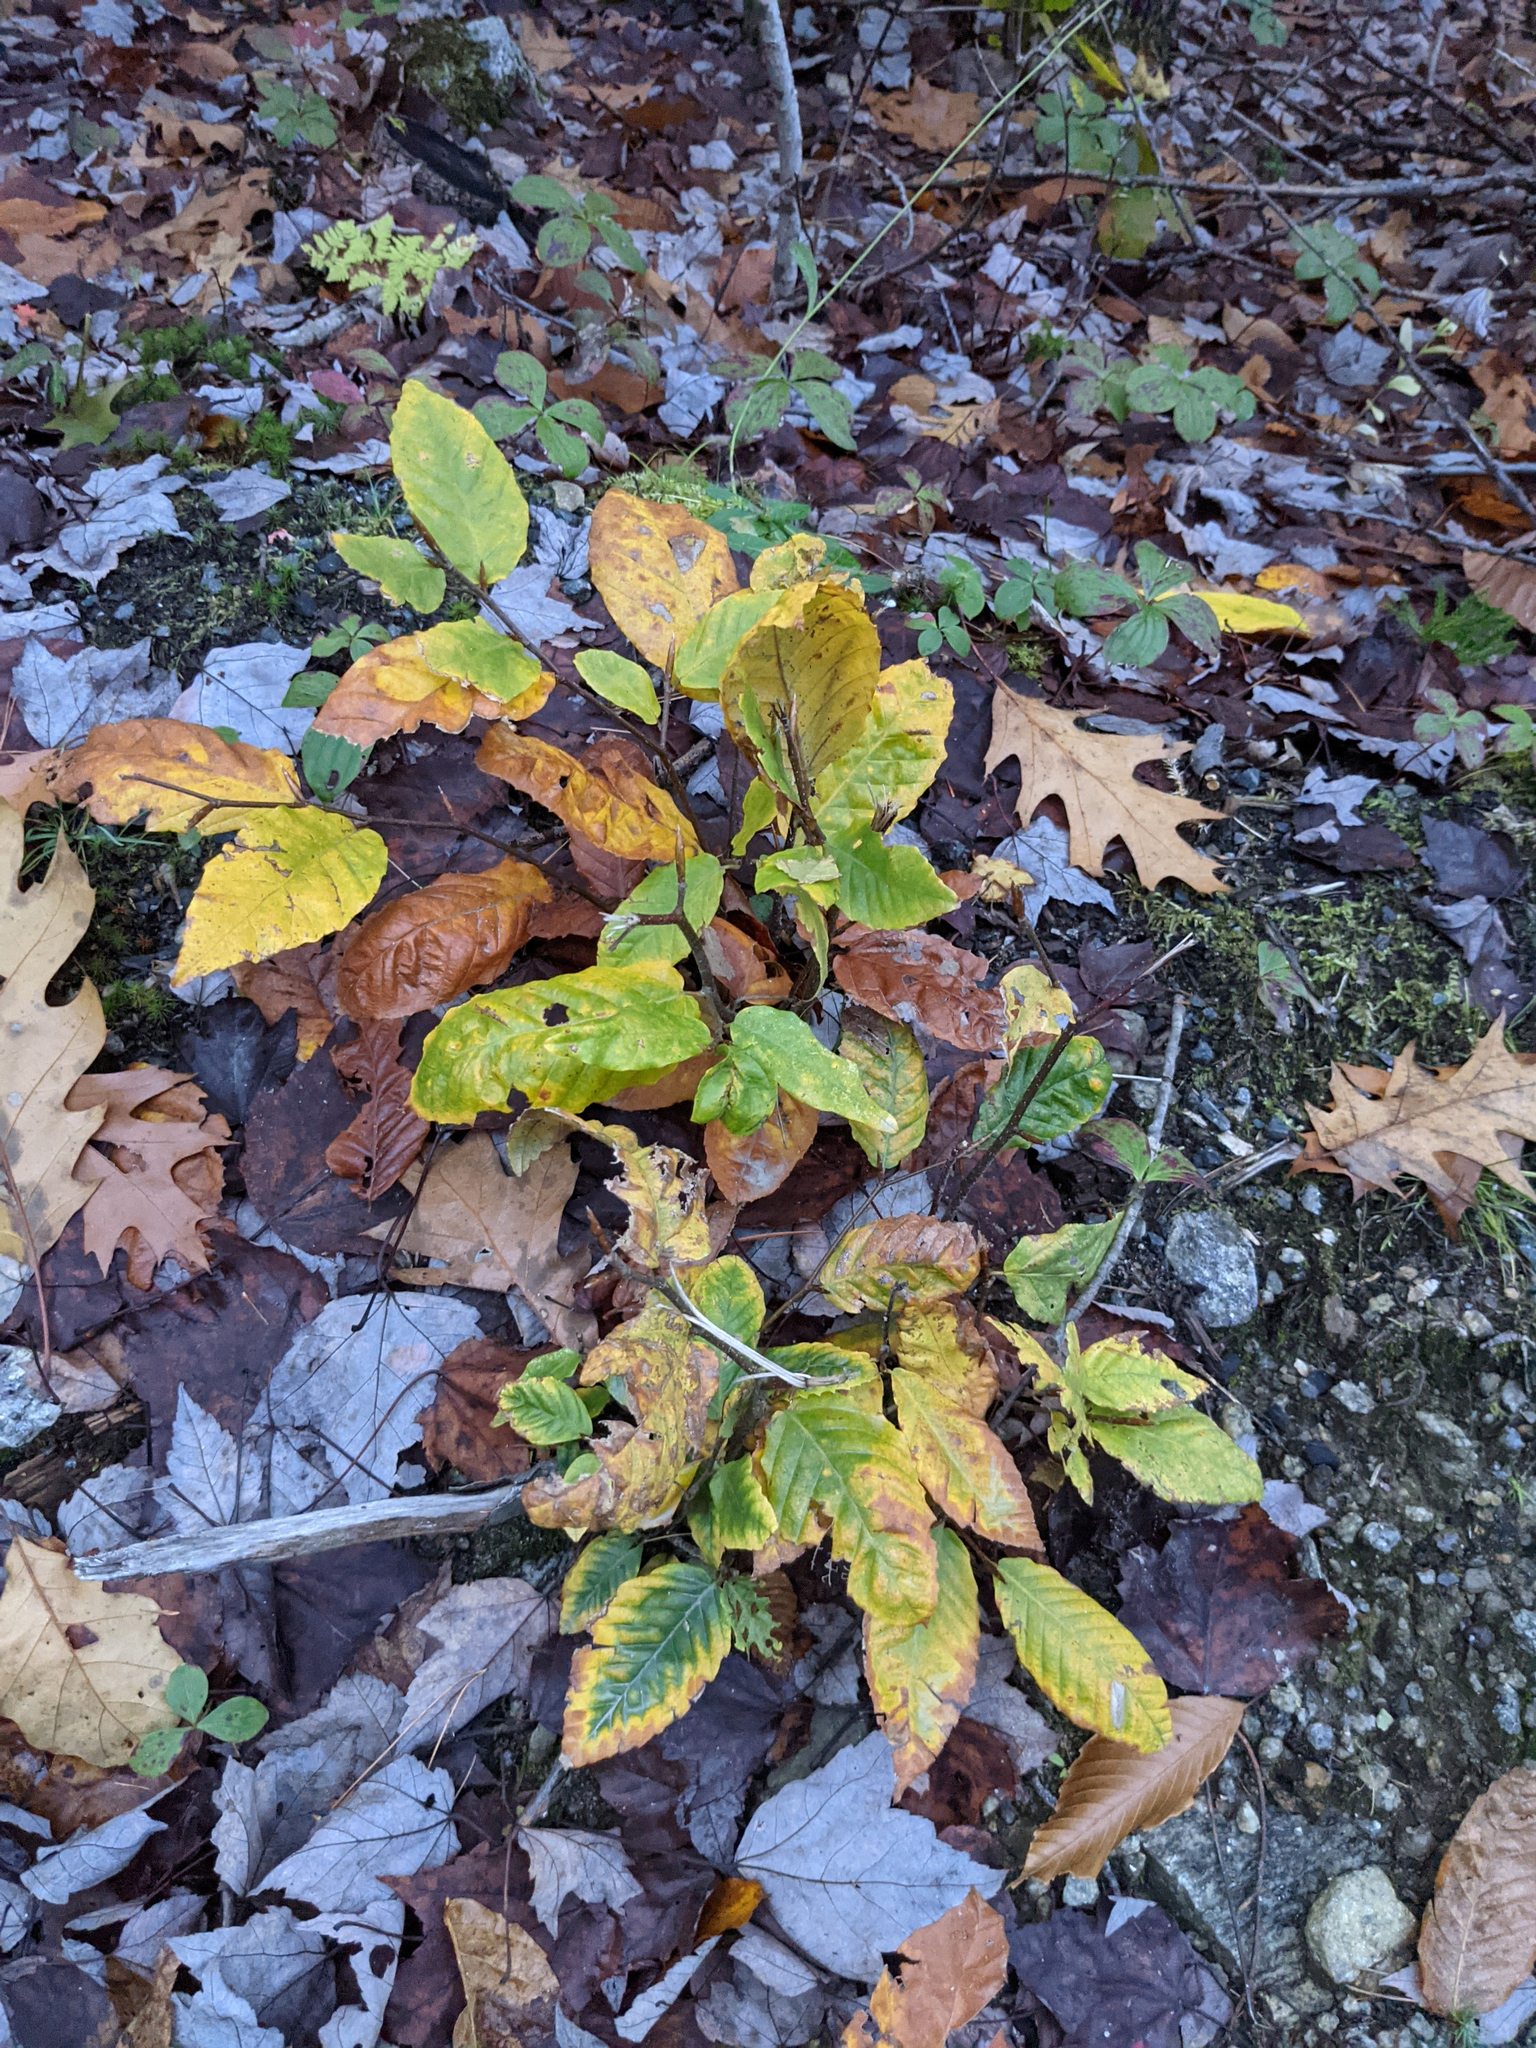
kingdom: Plantae
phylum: Tracheophyta
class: Magnoliopsida
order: Fagales
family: Fagaceae
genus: Fagus
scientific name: Fagus grandifolia
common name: American beech
